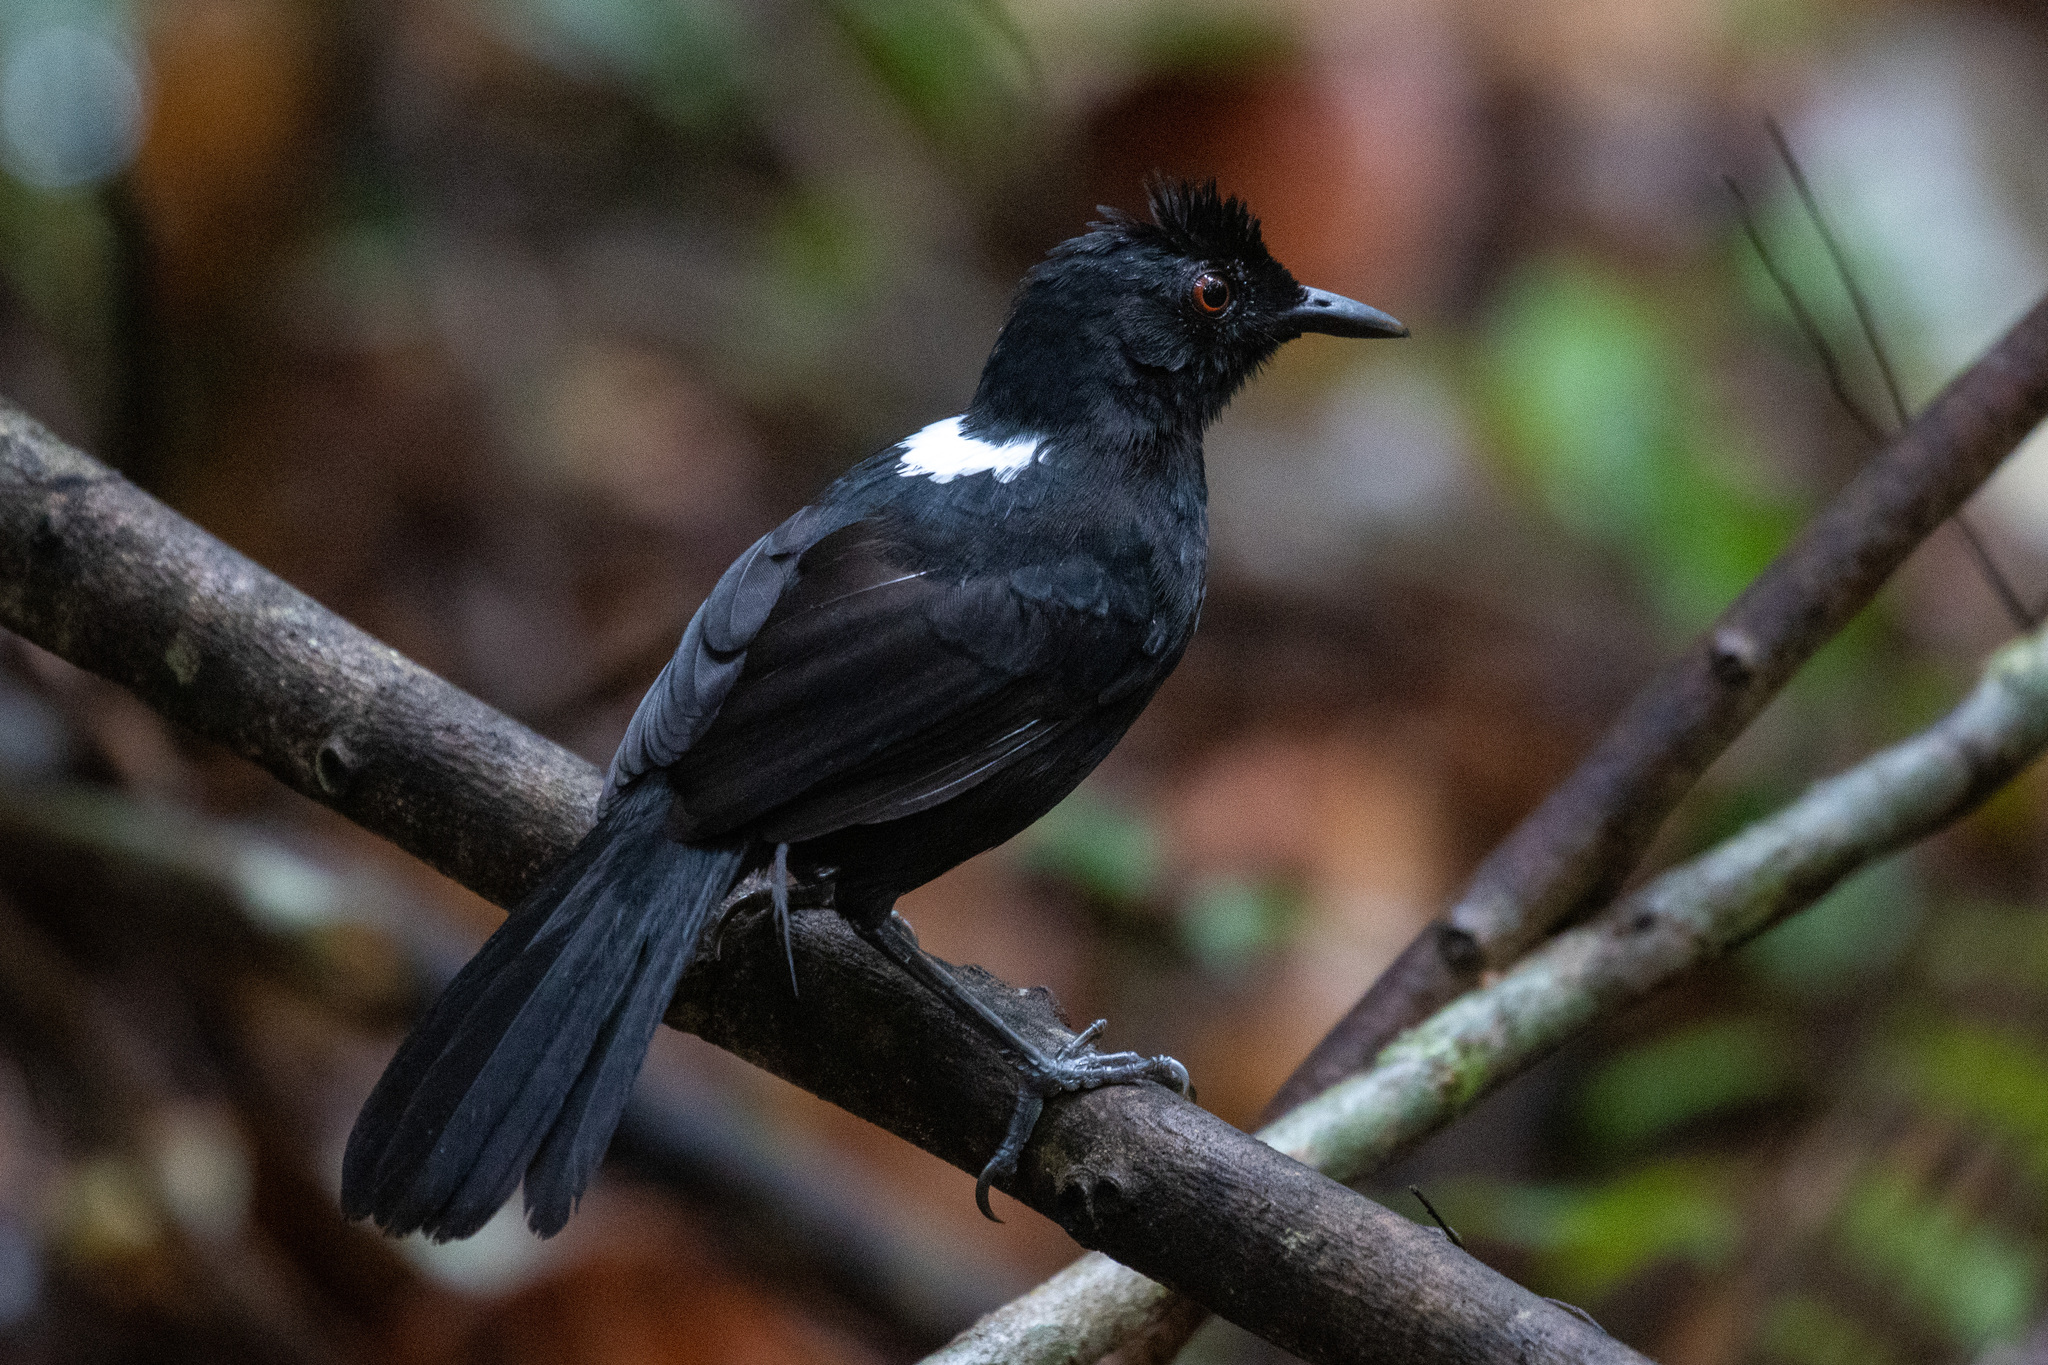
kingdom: Animalia
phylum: Chordata
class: Aves
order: Passeriformes
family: Thamnophilidae
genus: Pyriglena
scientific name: Pyriglena leuconota
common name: White-backed fire-eye
